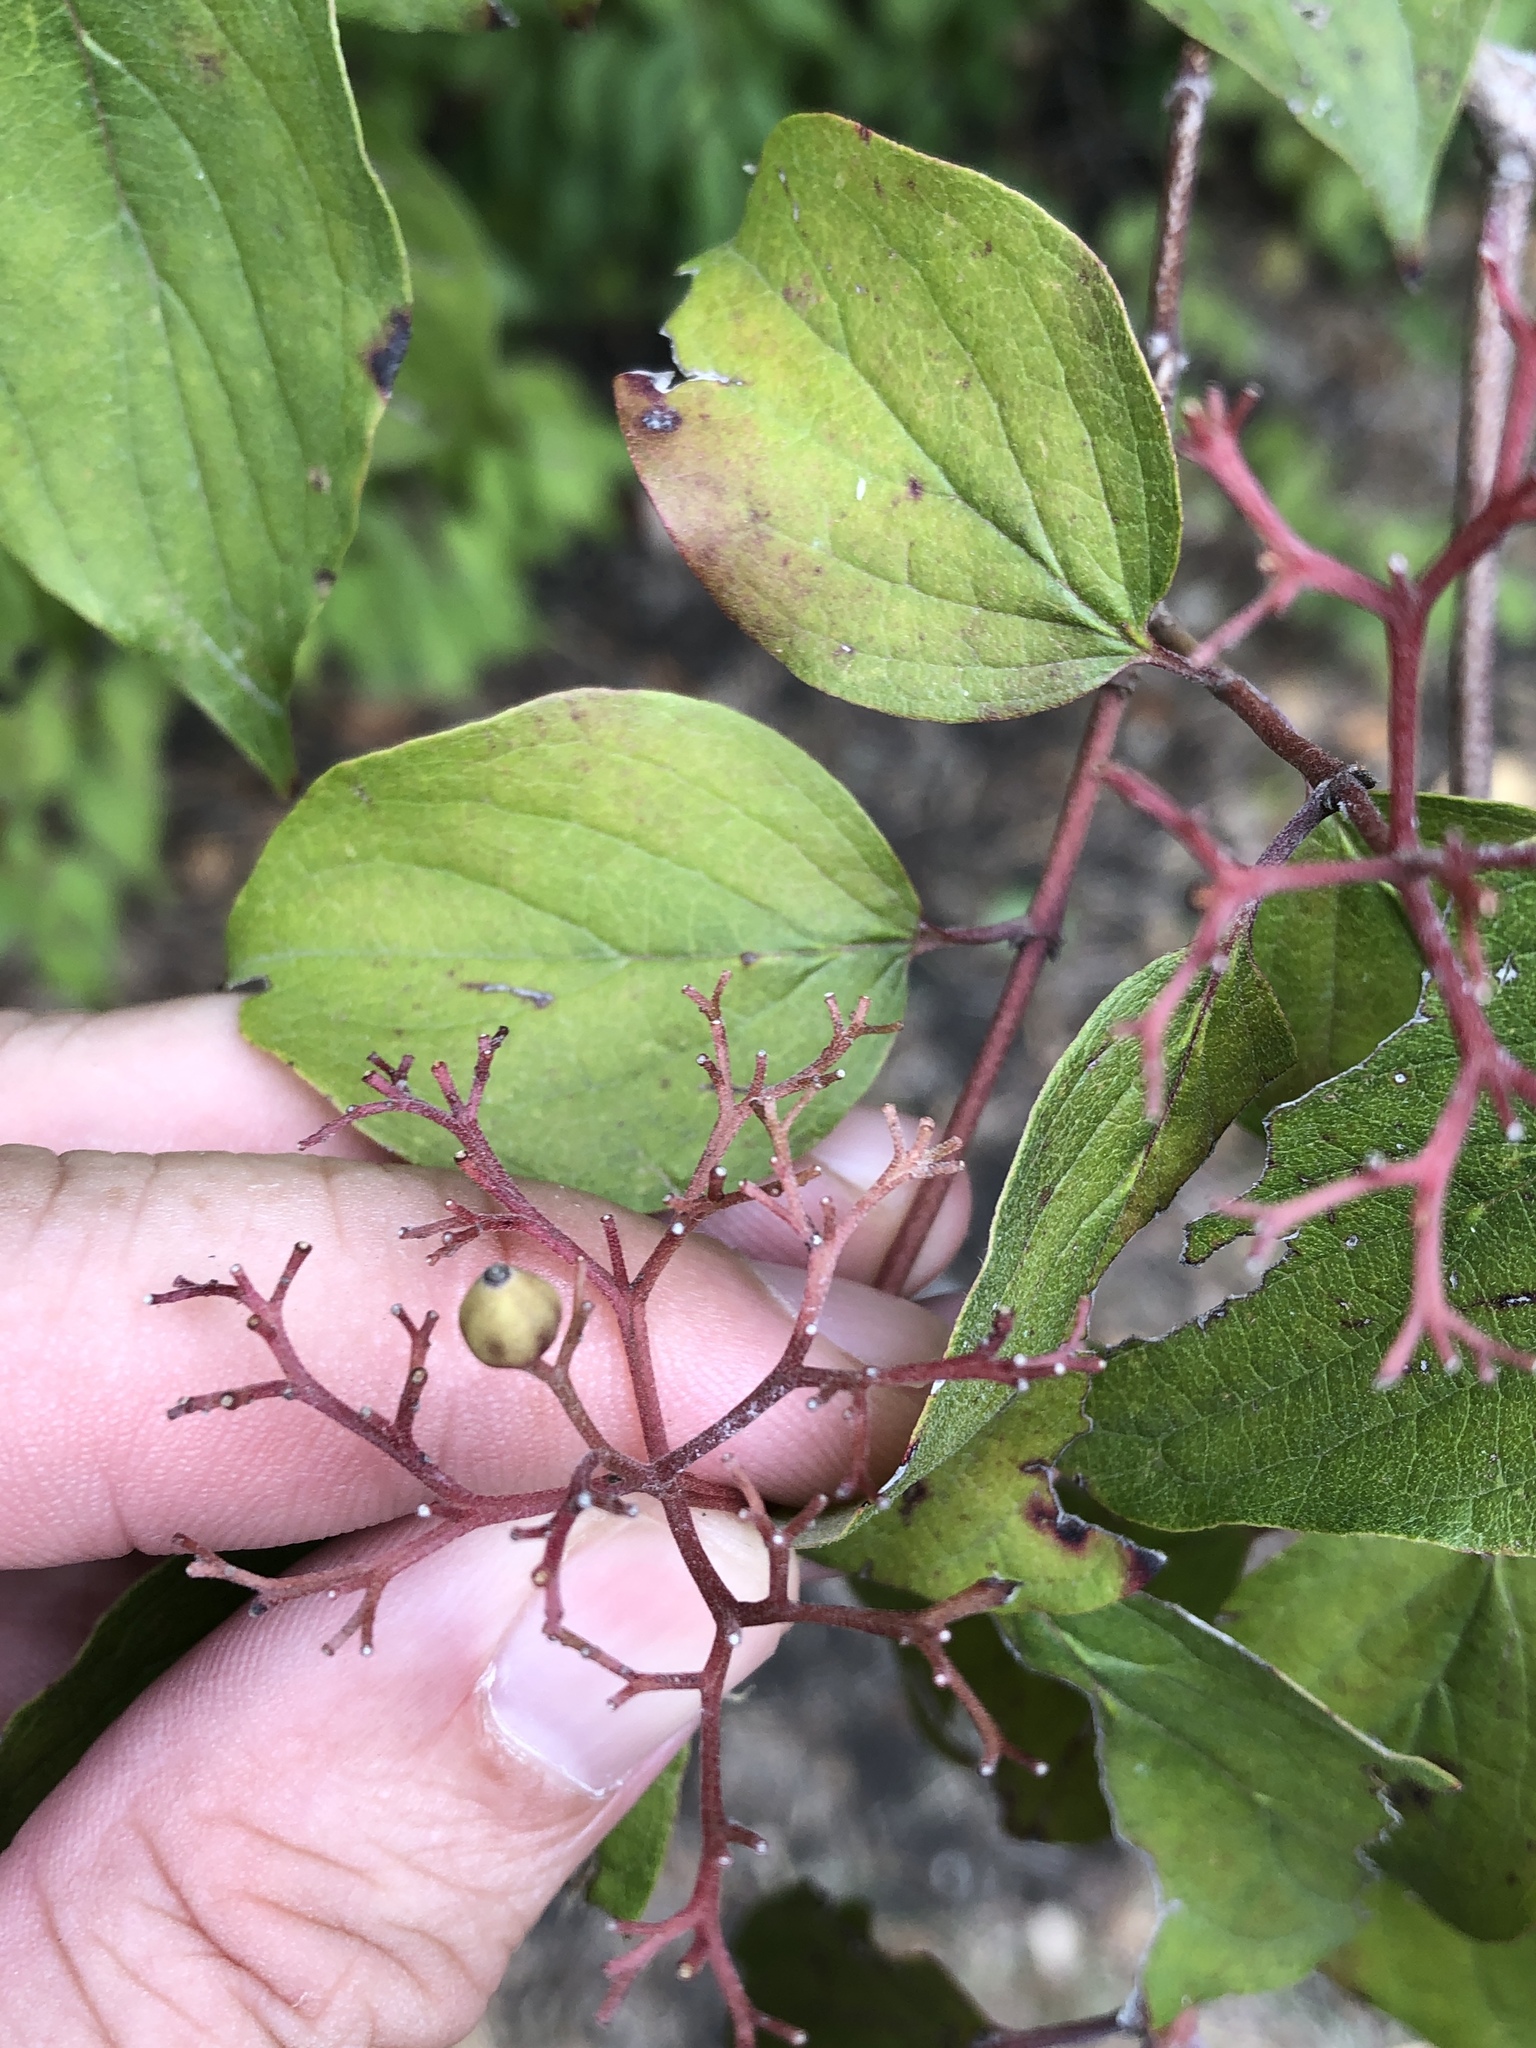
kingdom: Plantae
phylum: Tracheophyta
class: Magnoliopsida
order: Cornales
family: Cornaceae
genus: Cornus
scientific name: Cornus drummondii
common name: Rough-leaf dogwood
